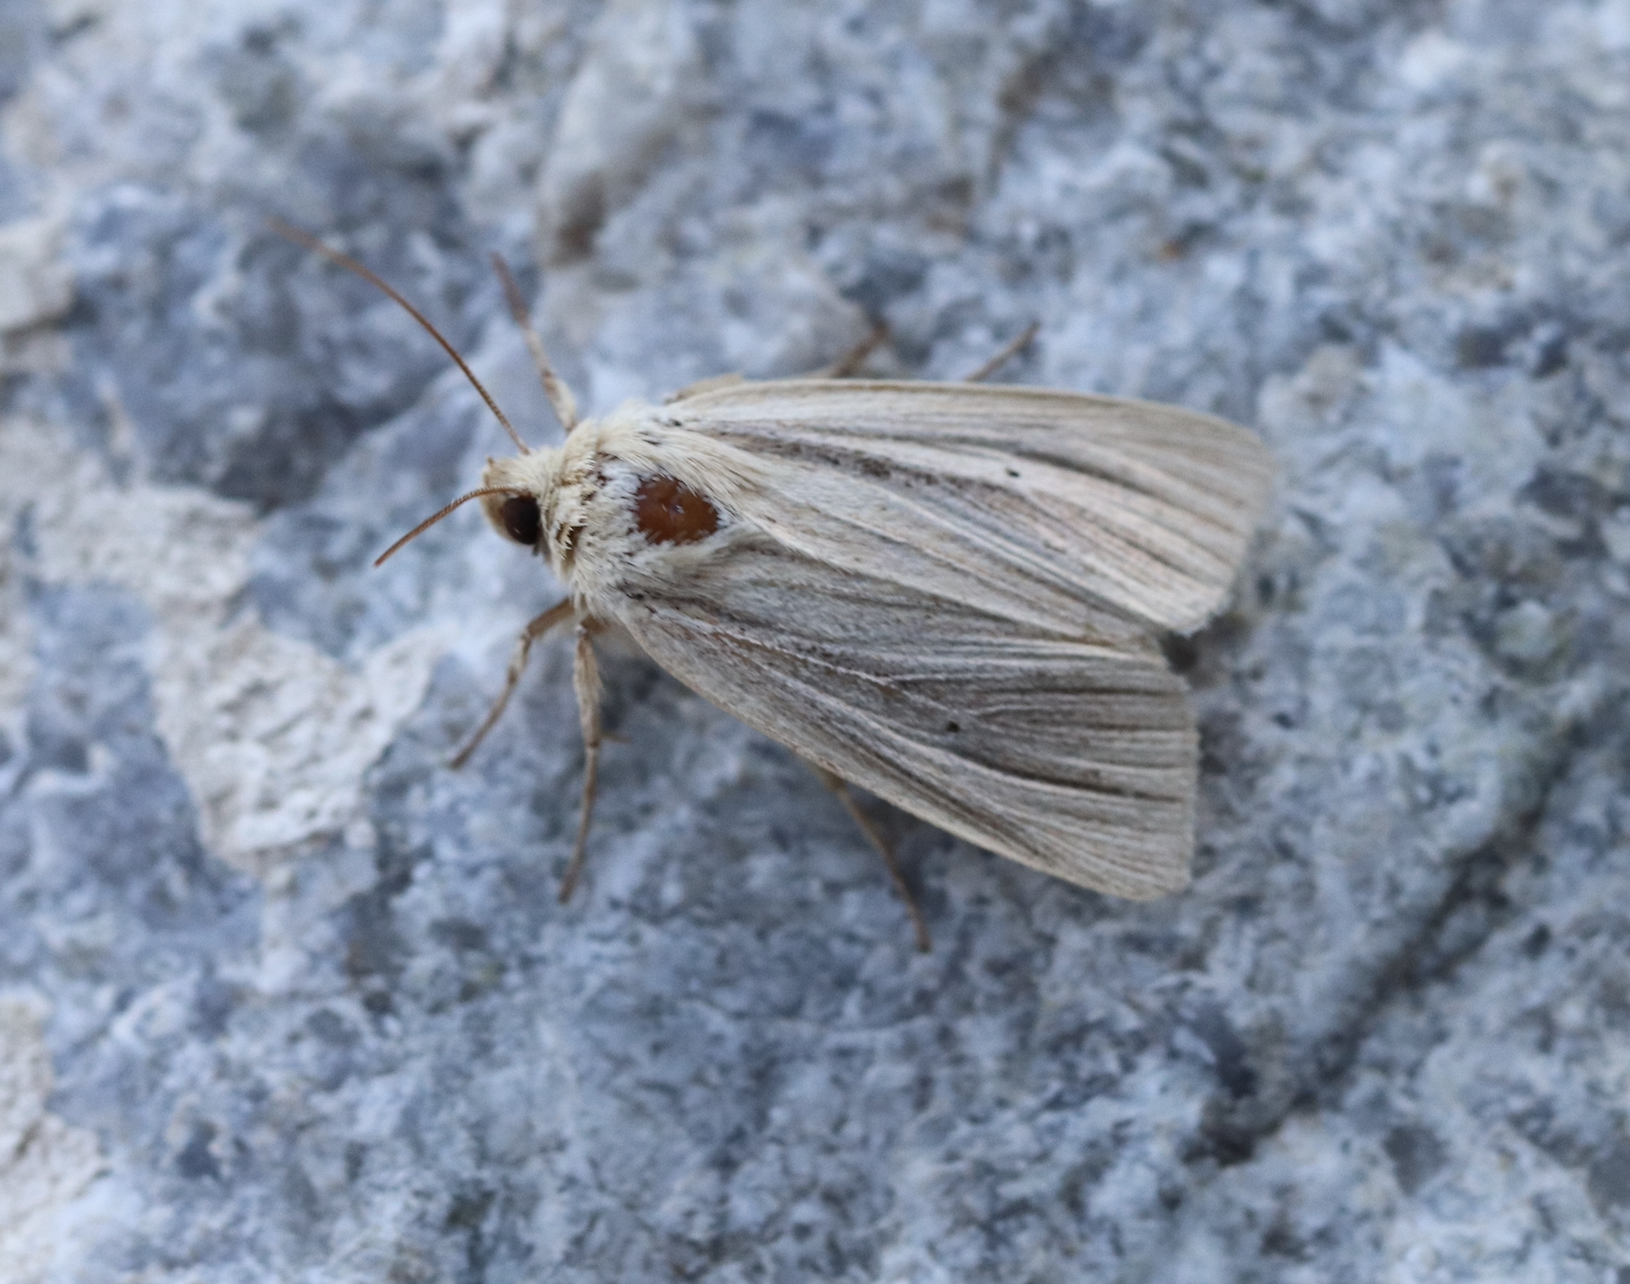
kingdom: Animalia
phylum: Arthropoda
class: Insecta
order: Lepidoptera
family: Noctuidae
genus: Mythimna
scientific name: Mythimna impura
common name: Smoky wainscot
